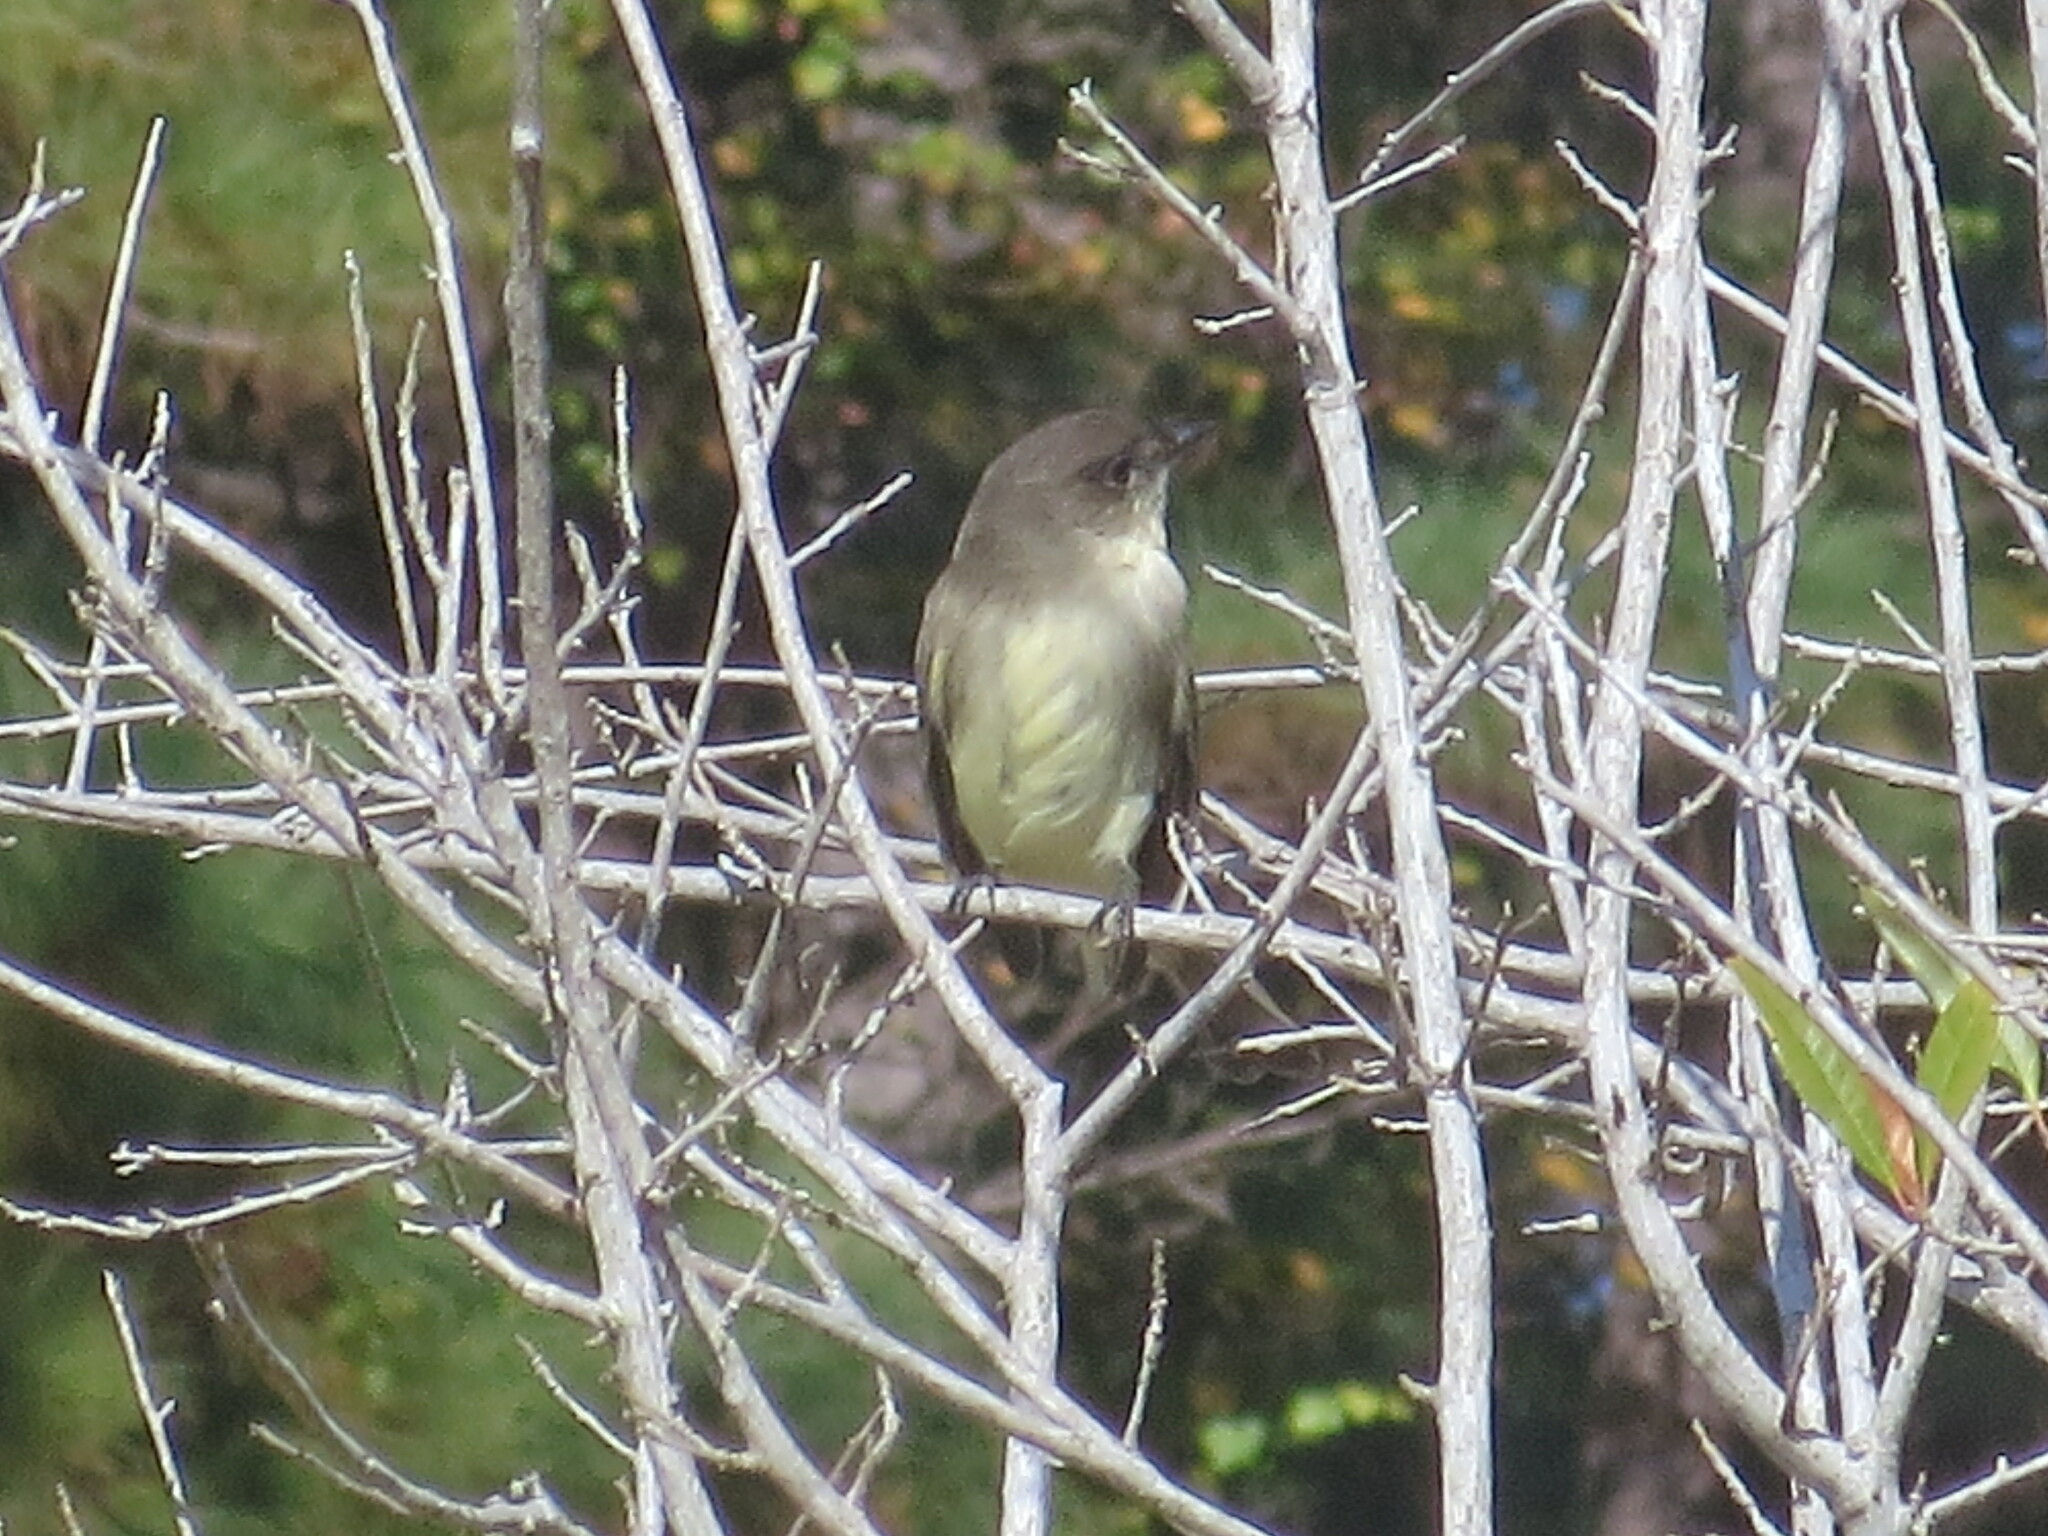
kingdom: Animalia
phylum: Chordata
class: Aves
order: Passeriformes
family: Tyrannidae
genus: Sayornis
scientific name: Sayornis phoebe
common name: Eastern phoebe
